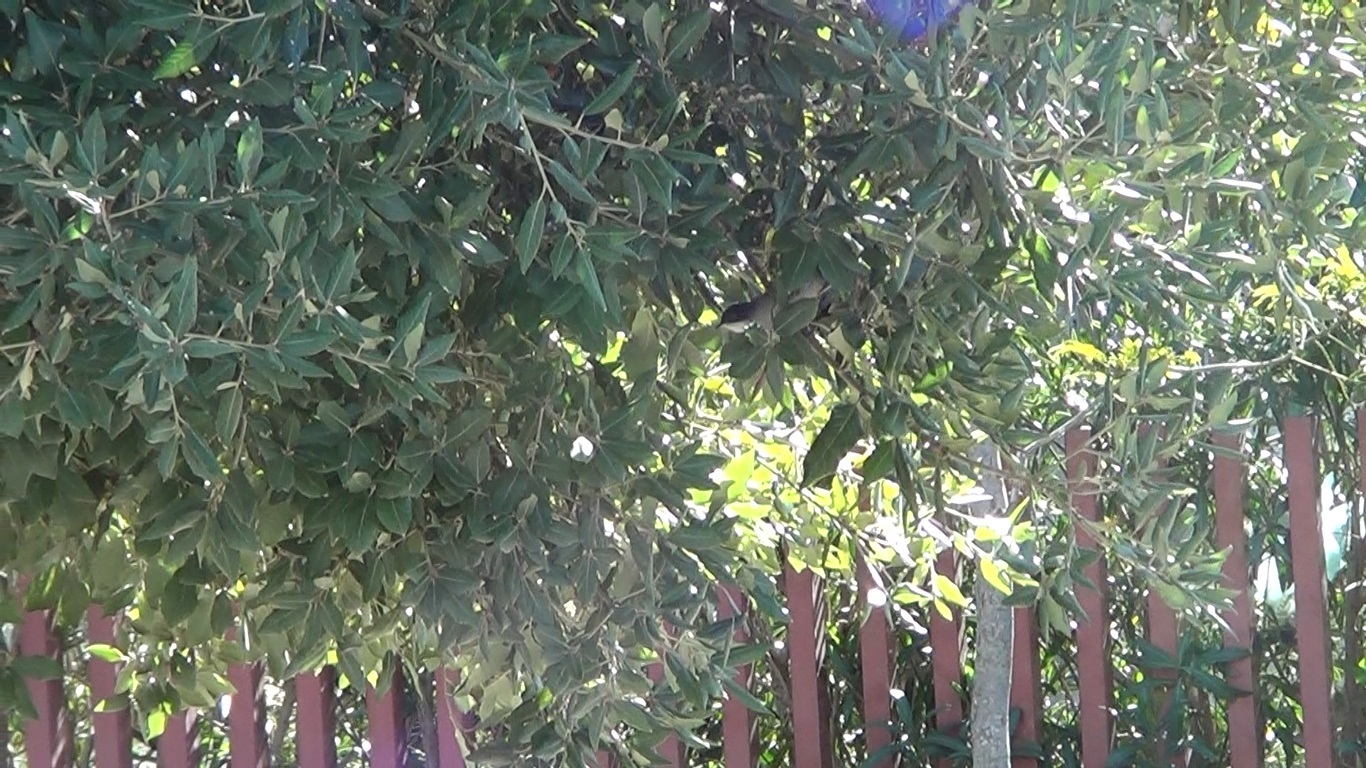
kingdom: Animalia
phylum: Chordata
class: Aves
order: Passeriformes
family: Sylviidae
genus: Curruca
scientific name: Curruca melanocephala
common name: Sardinian warbler
